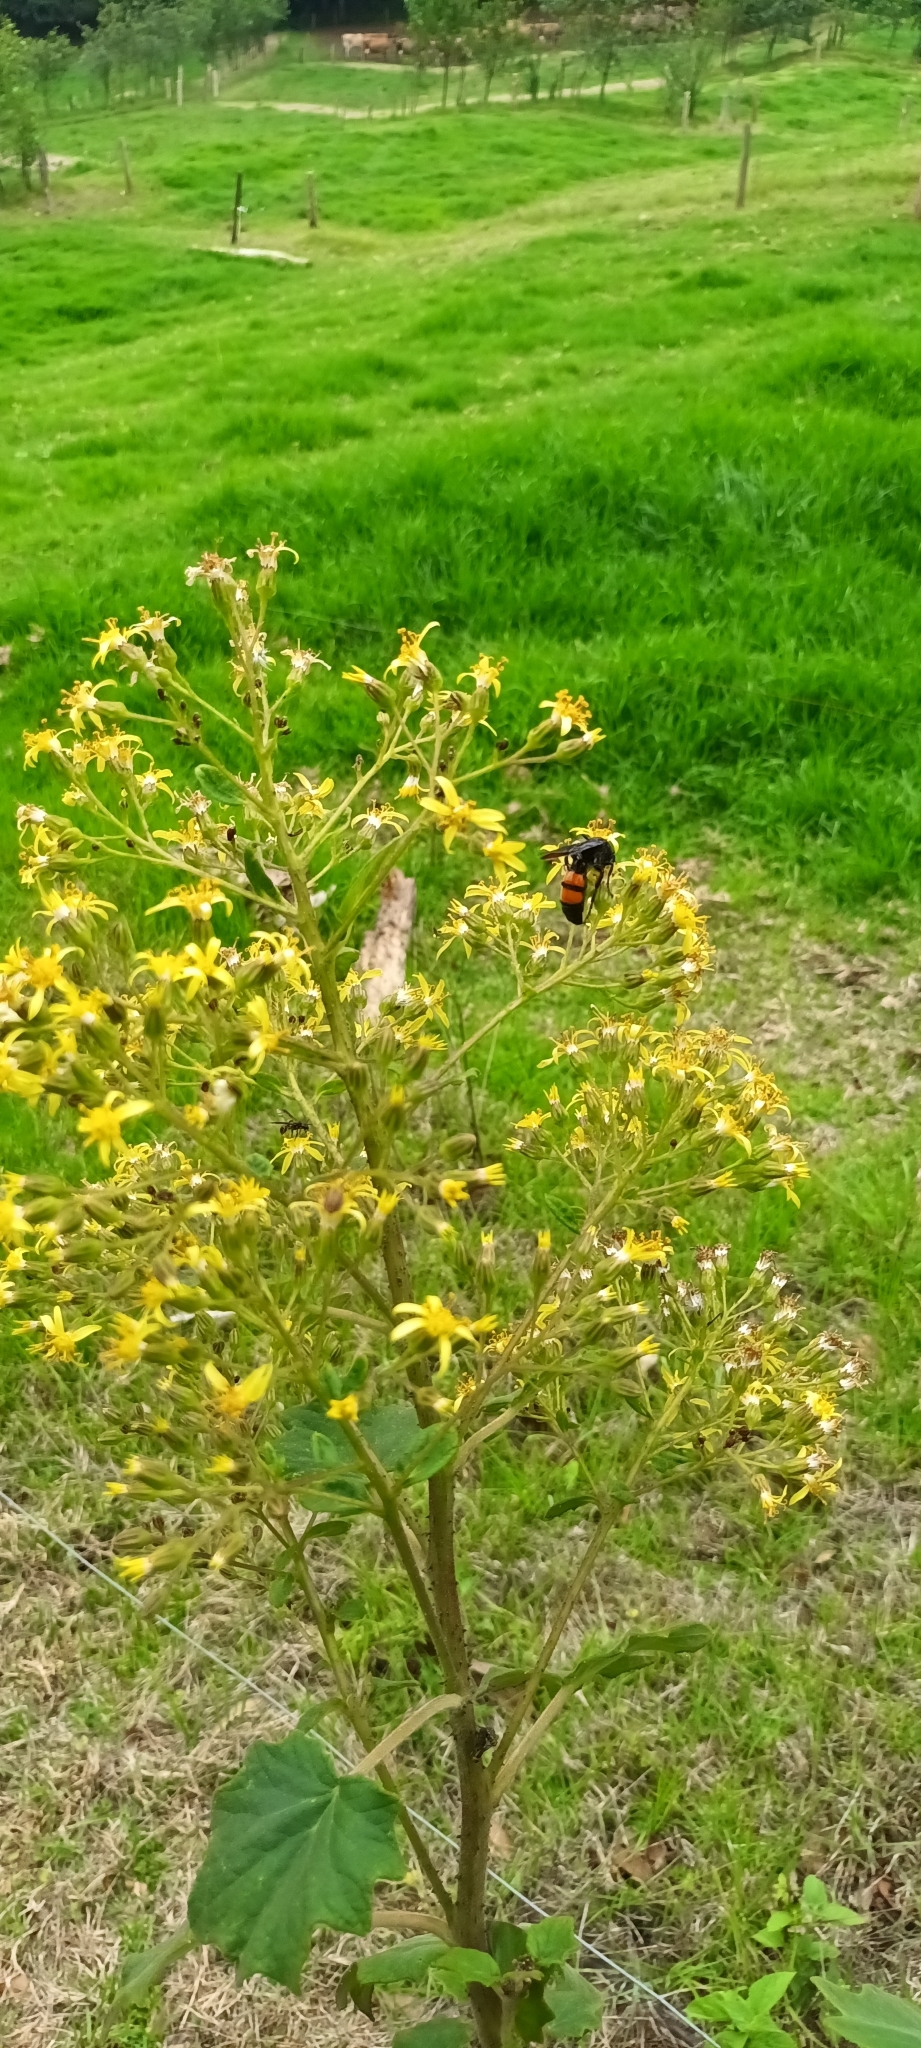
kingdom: Animalia
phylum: Arthropoda
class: Insecta
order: Hymenoptera
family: Scoliidae
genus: Pygodasis
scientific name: Pygodasis ephippium
